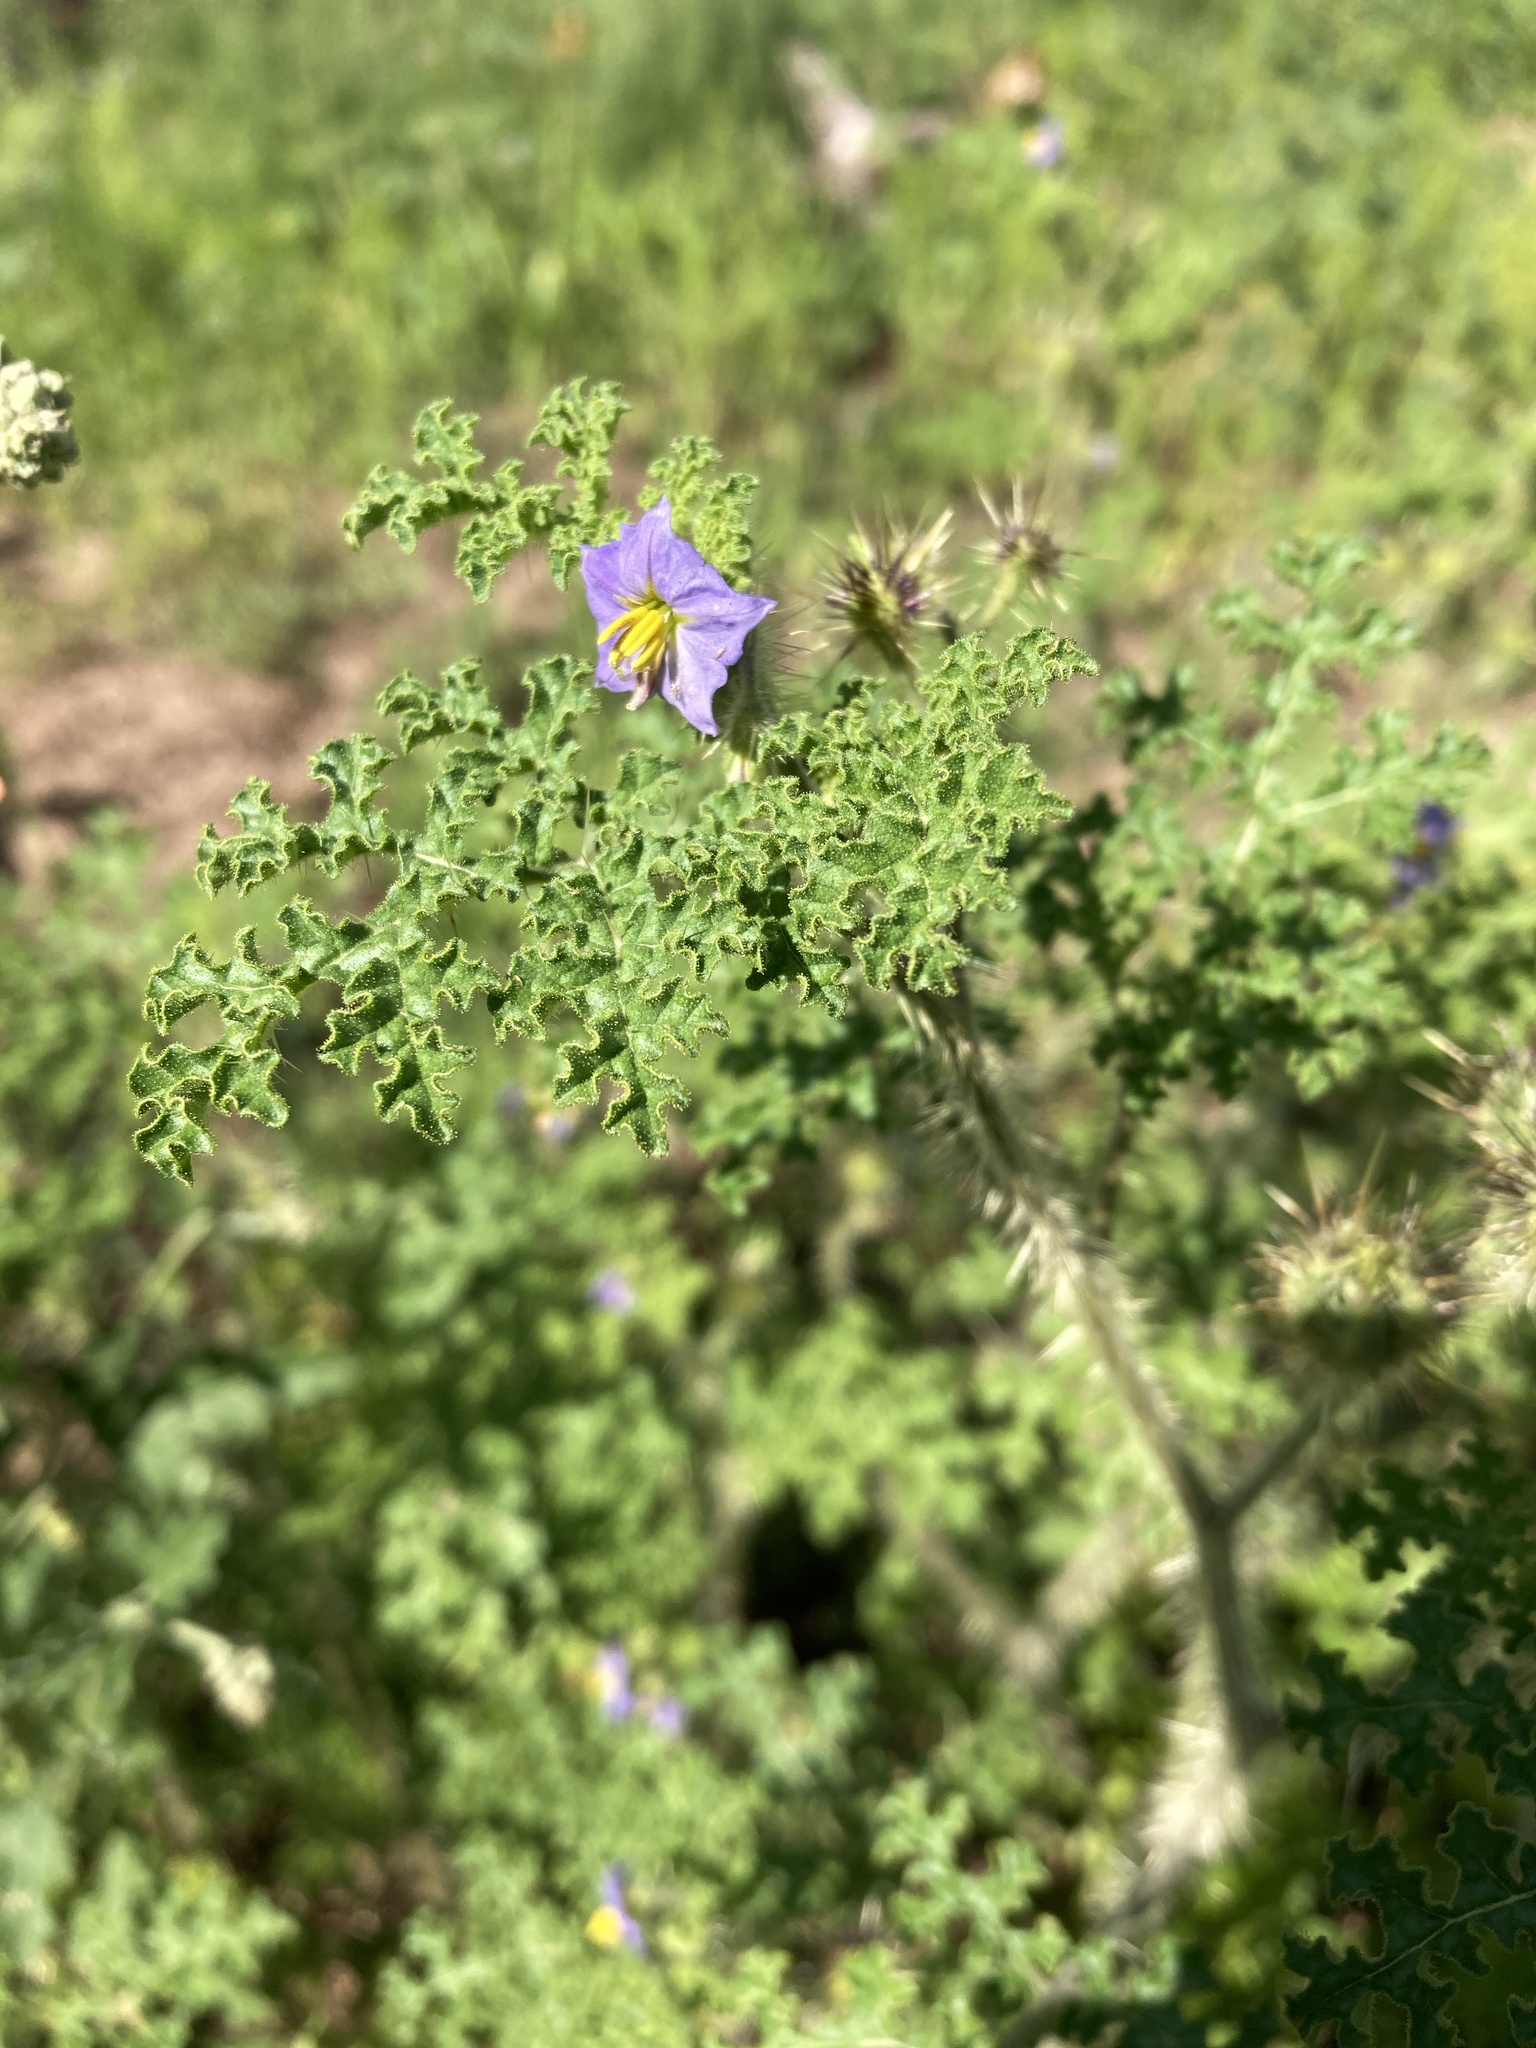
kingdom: Plantae
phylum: Tracheophyta
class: Magnoliopsida
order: Solanales
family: Solanaceae
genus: Solanum
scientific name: Solanum heterodoxum
